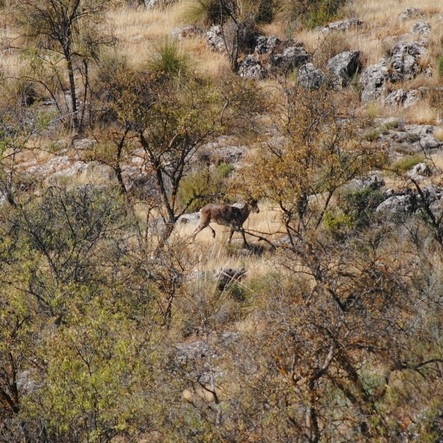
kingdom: Animalia
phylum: Chordata
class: Mammalia
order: Artiodactyla
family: Bovidae
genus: Capra
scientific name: Capra pyrenaica
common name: Spanish ibex
